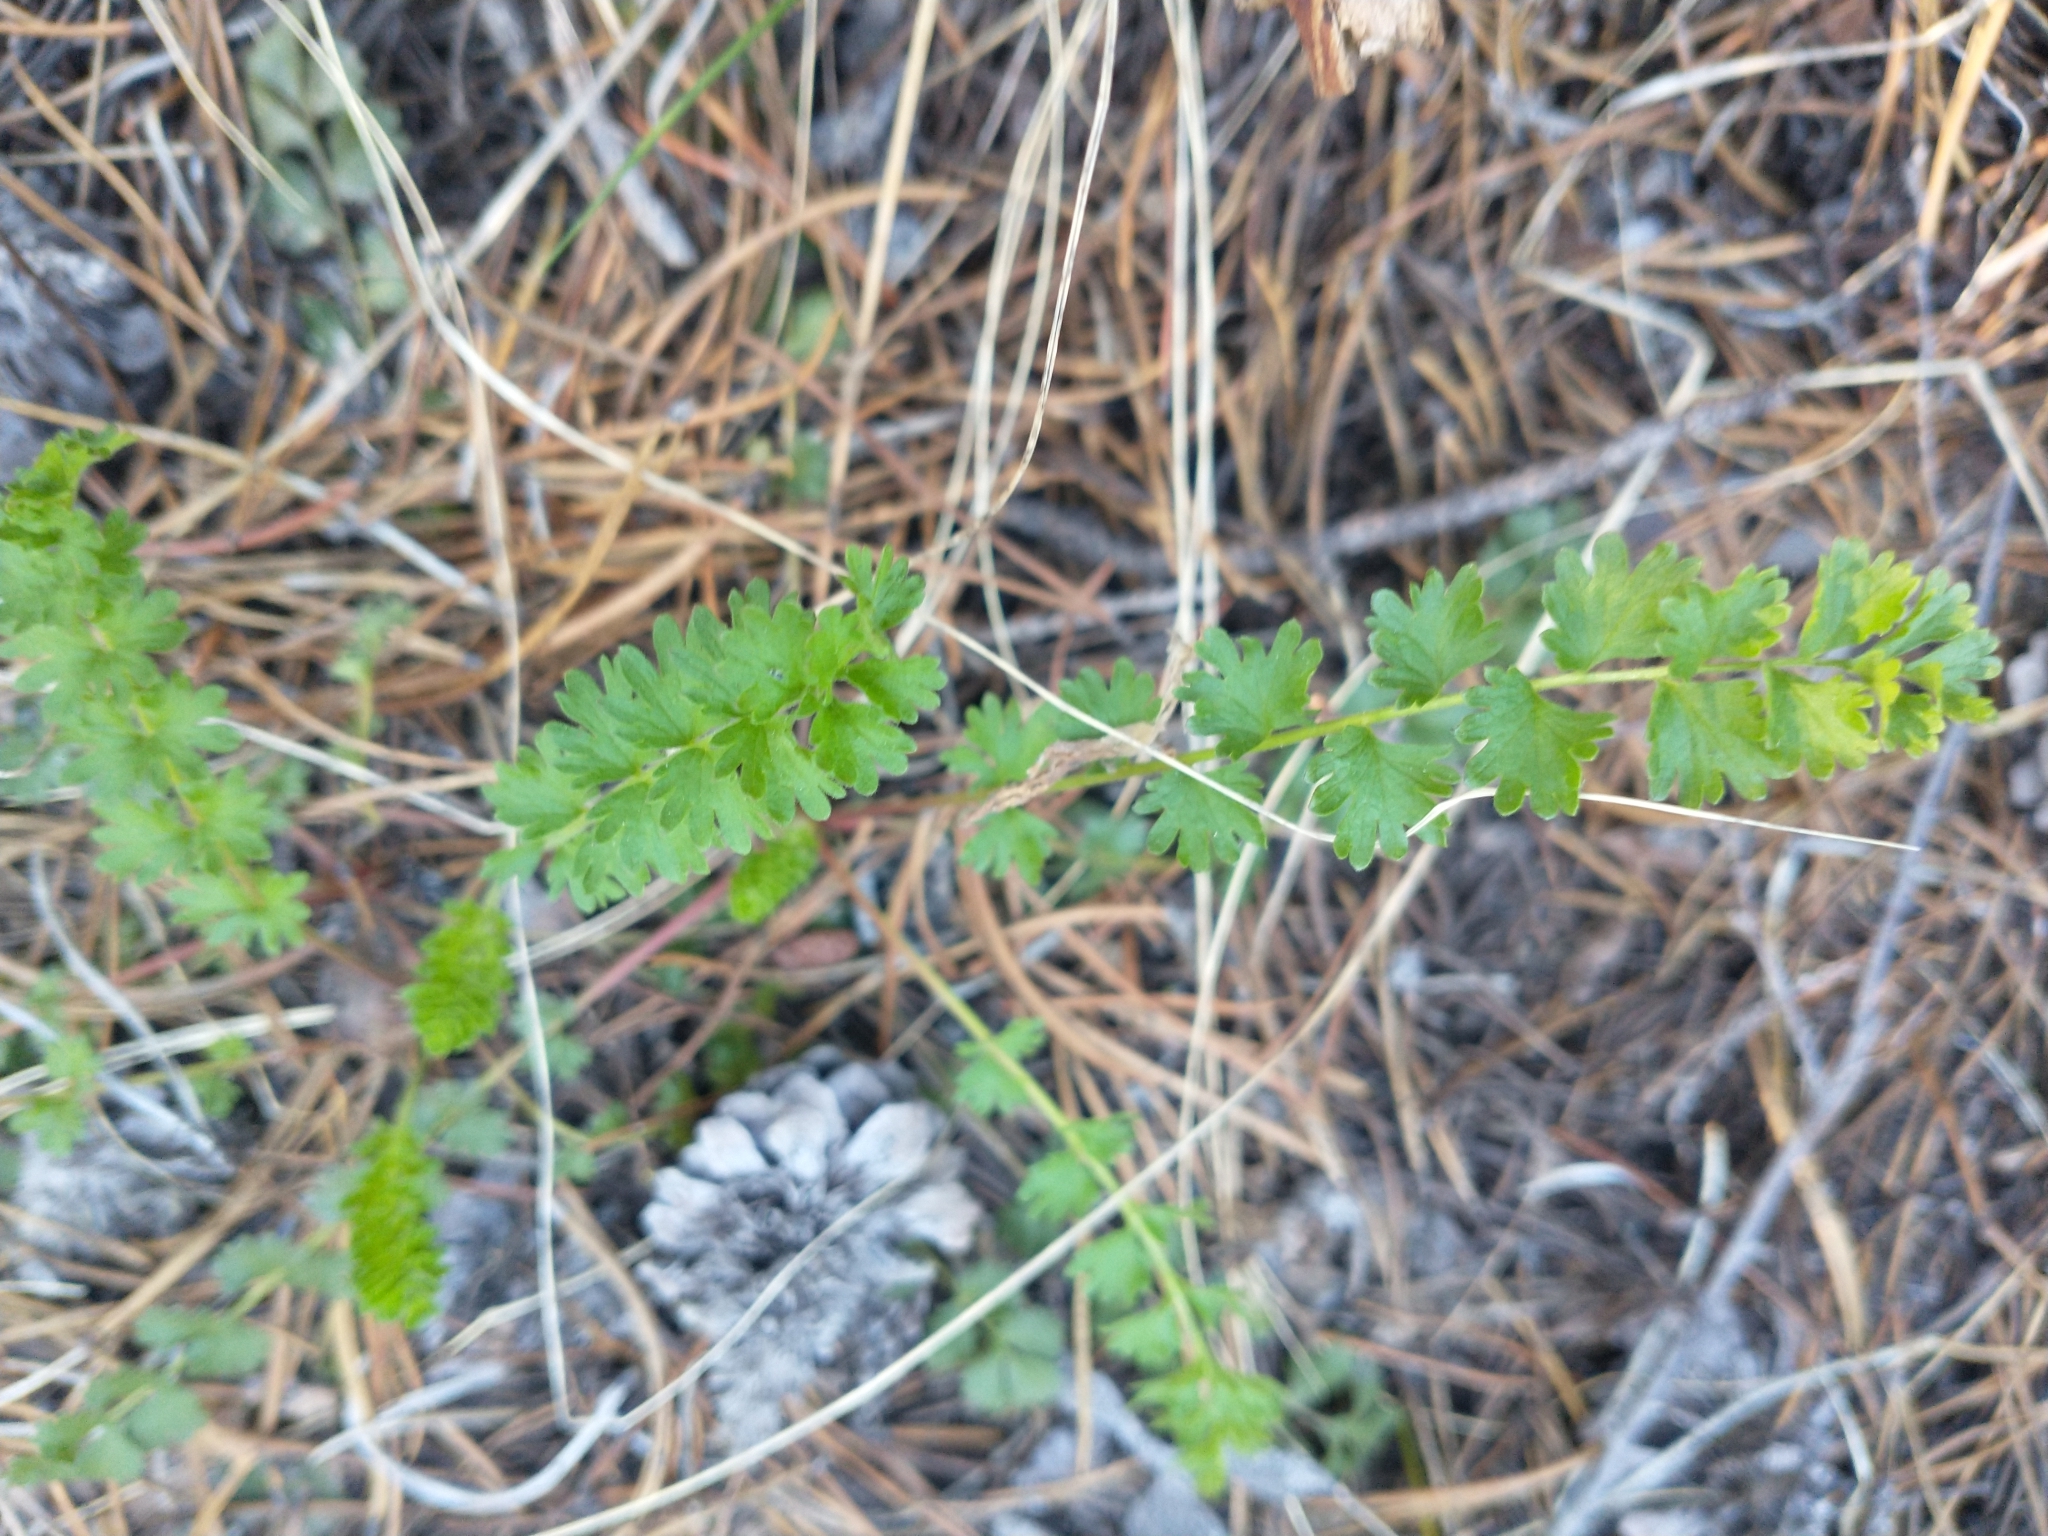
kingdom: Plantae
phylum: Tracheophyta
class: Magnoliopsida
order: Rosales
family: Rosaceae
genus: Potentilla
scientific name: Potentilla douglasii
